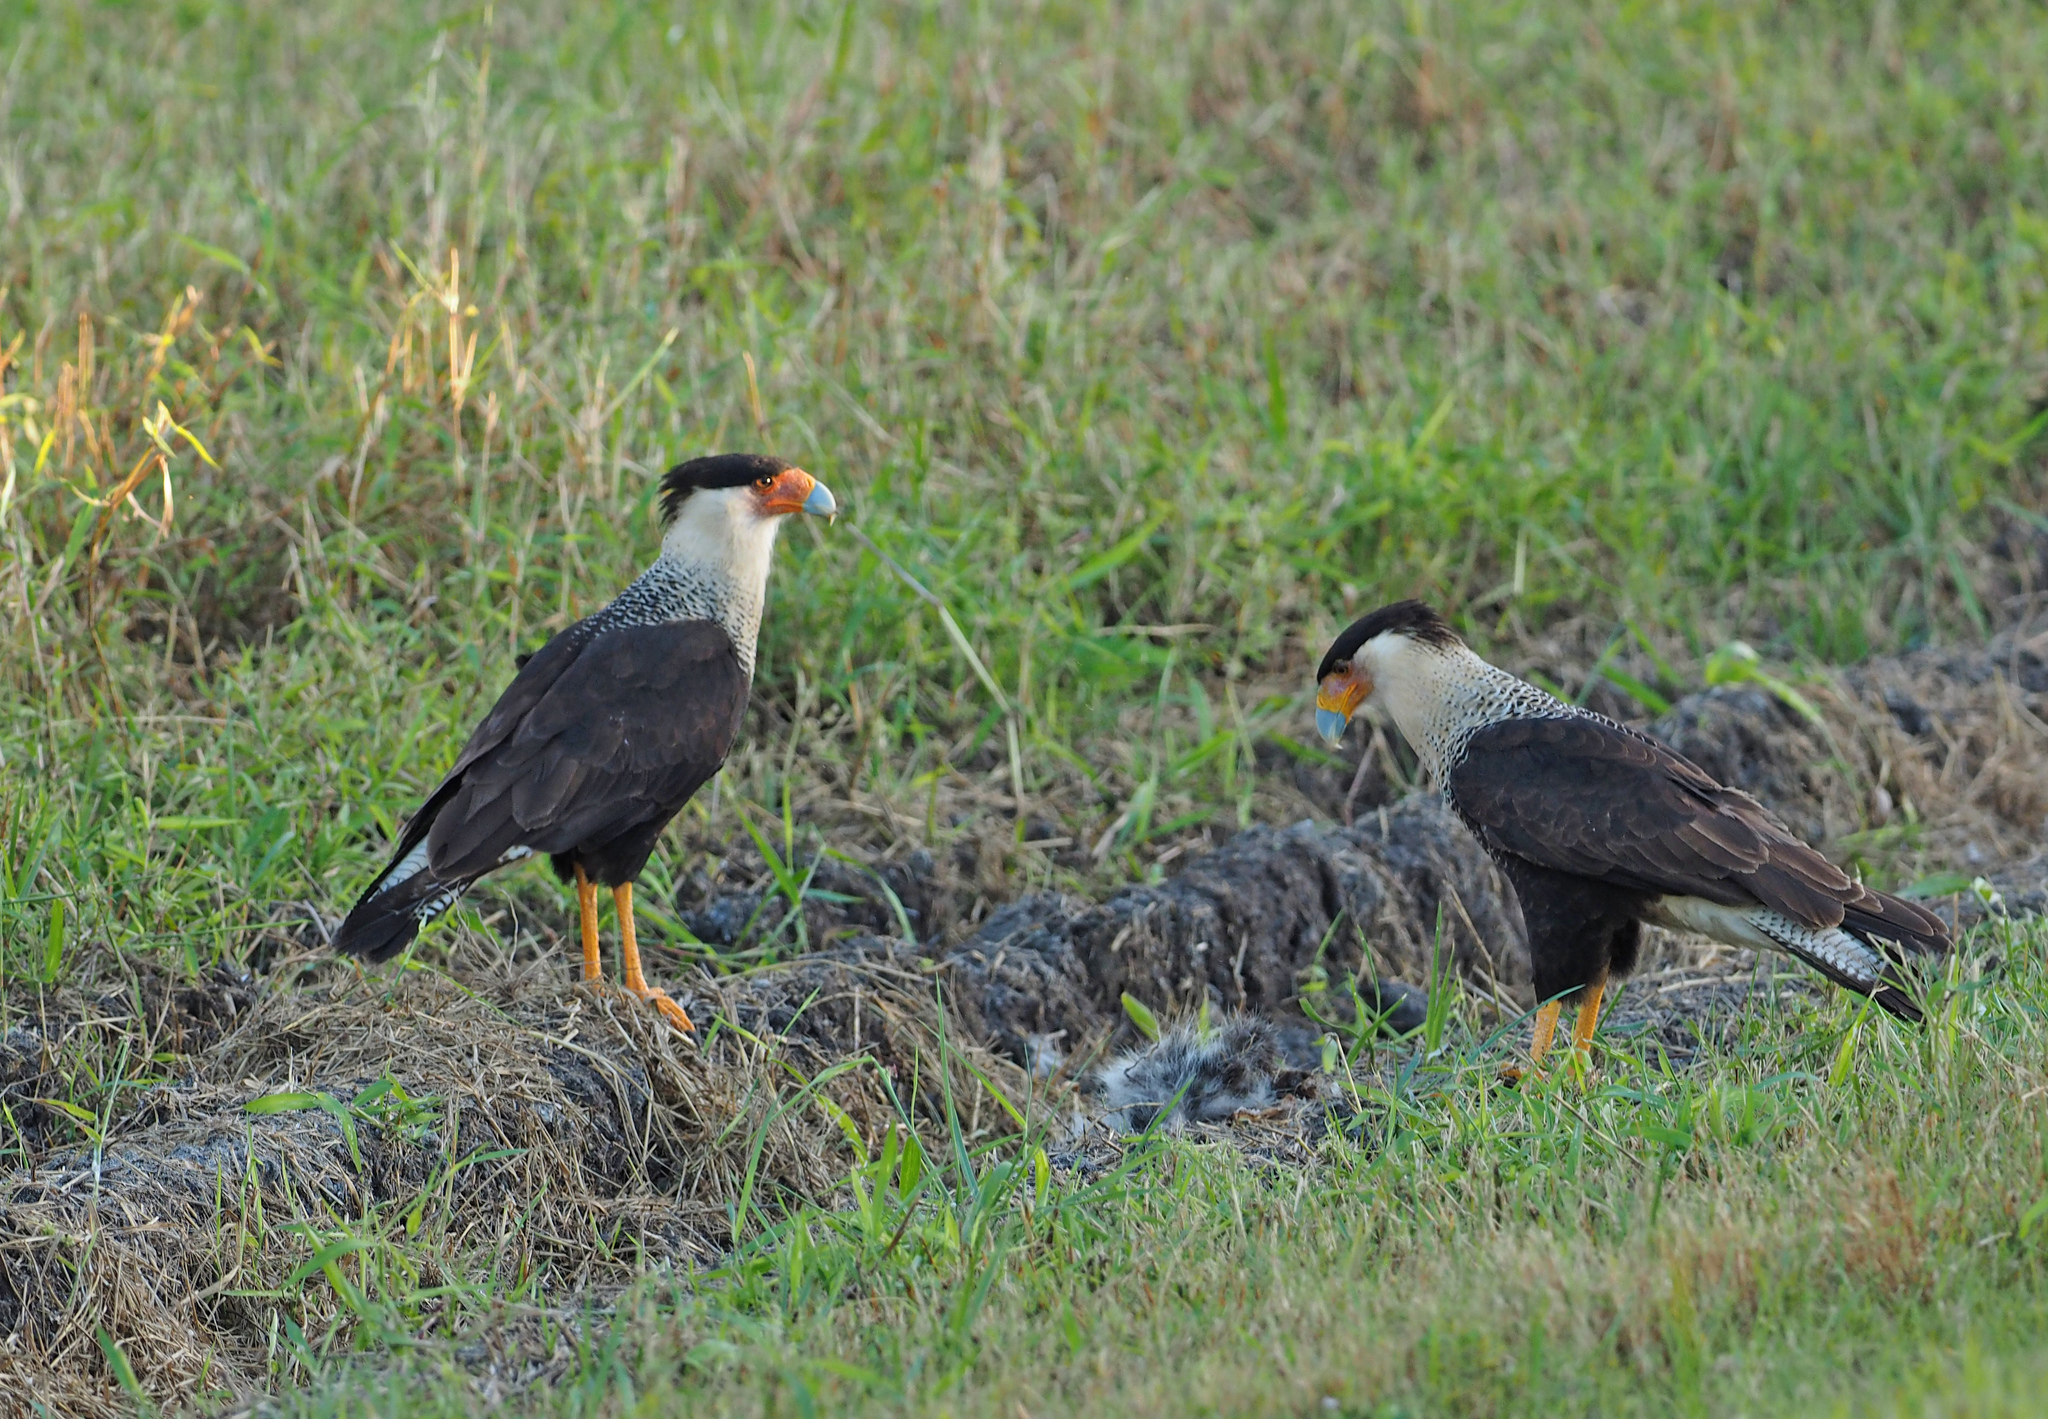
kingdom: Animalia
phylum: Chordata
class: Aves
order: Falconiformes
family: Falconidae
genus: Caracara
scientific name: Caracara plancus
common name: Southern caracara
